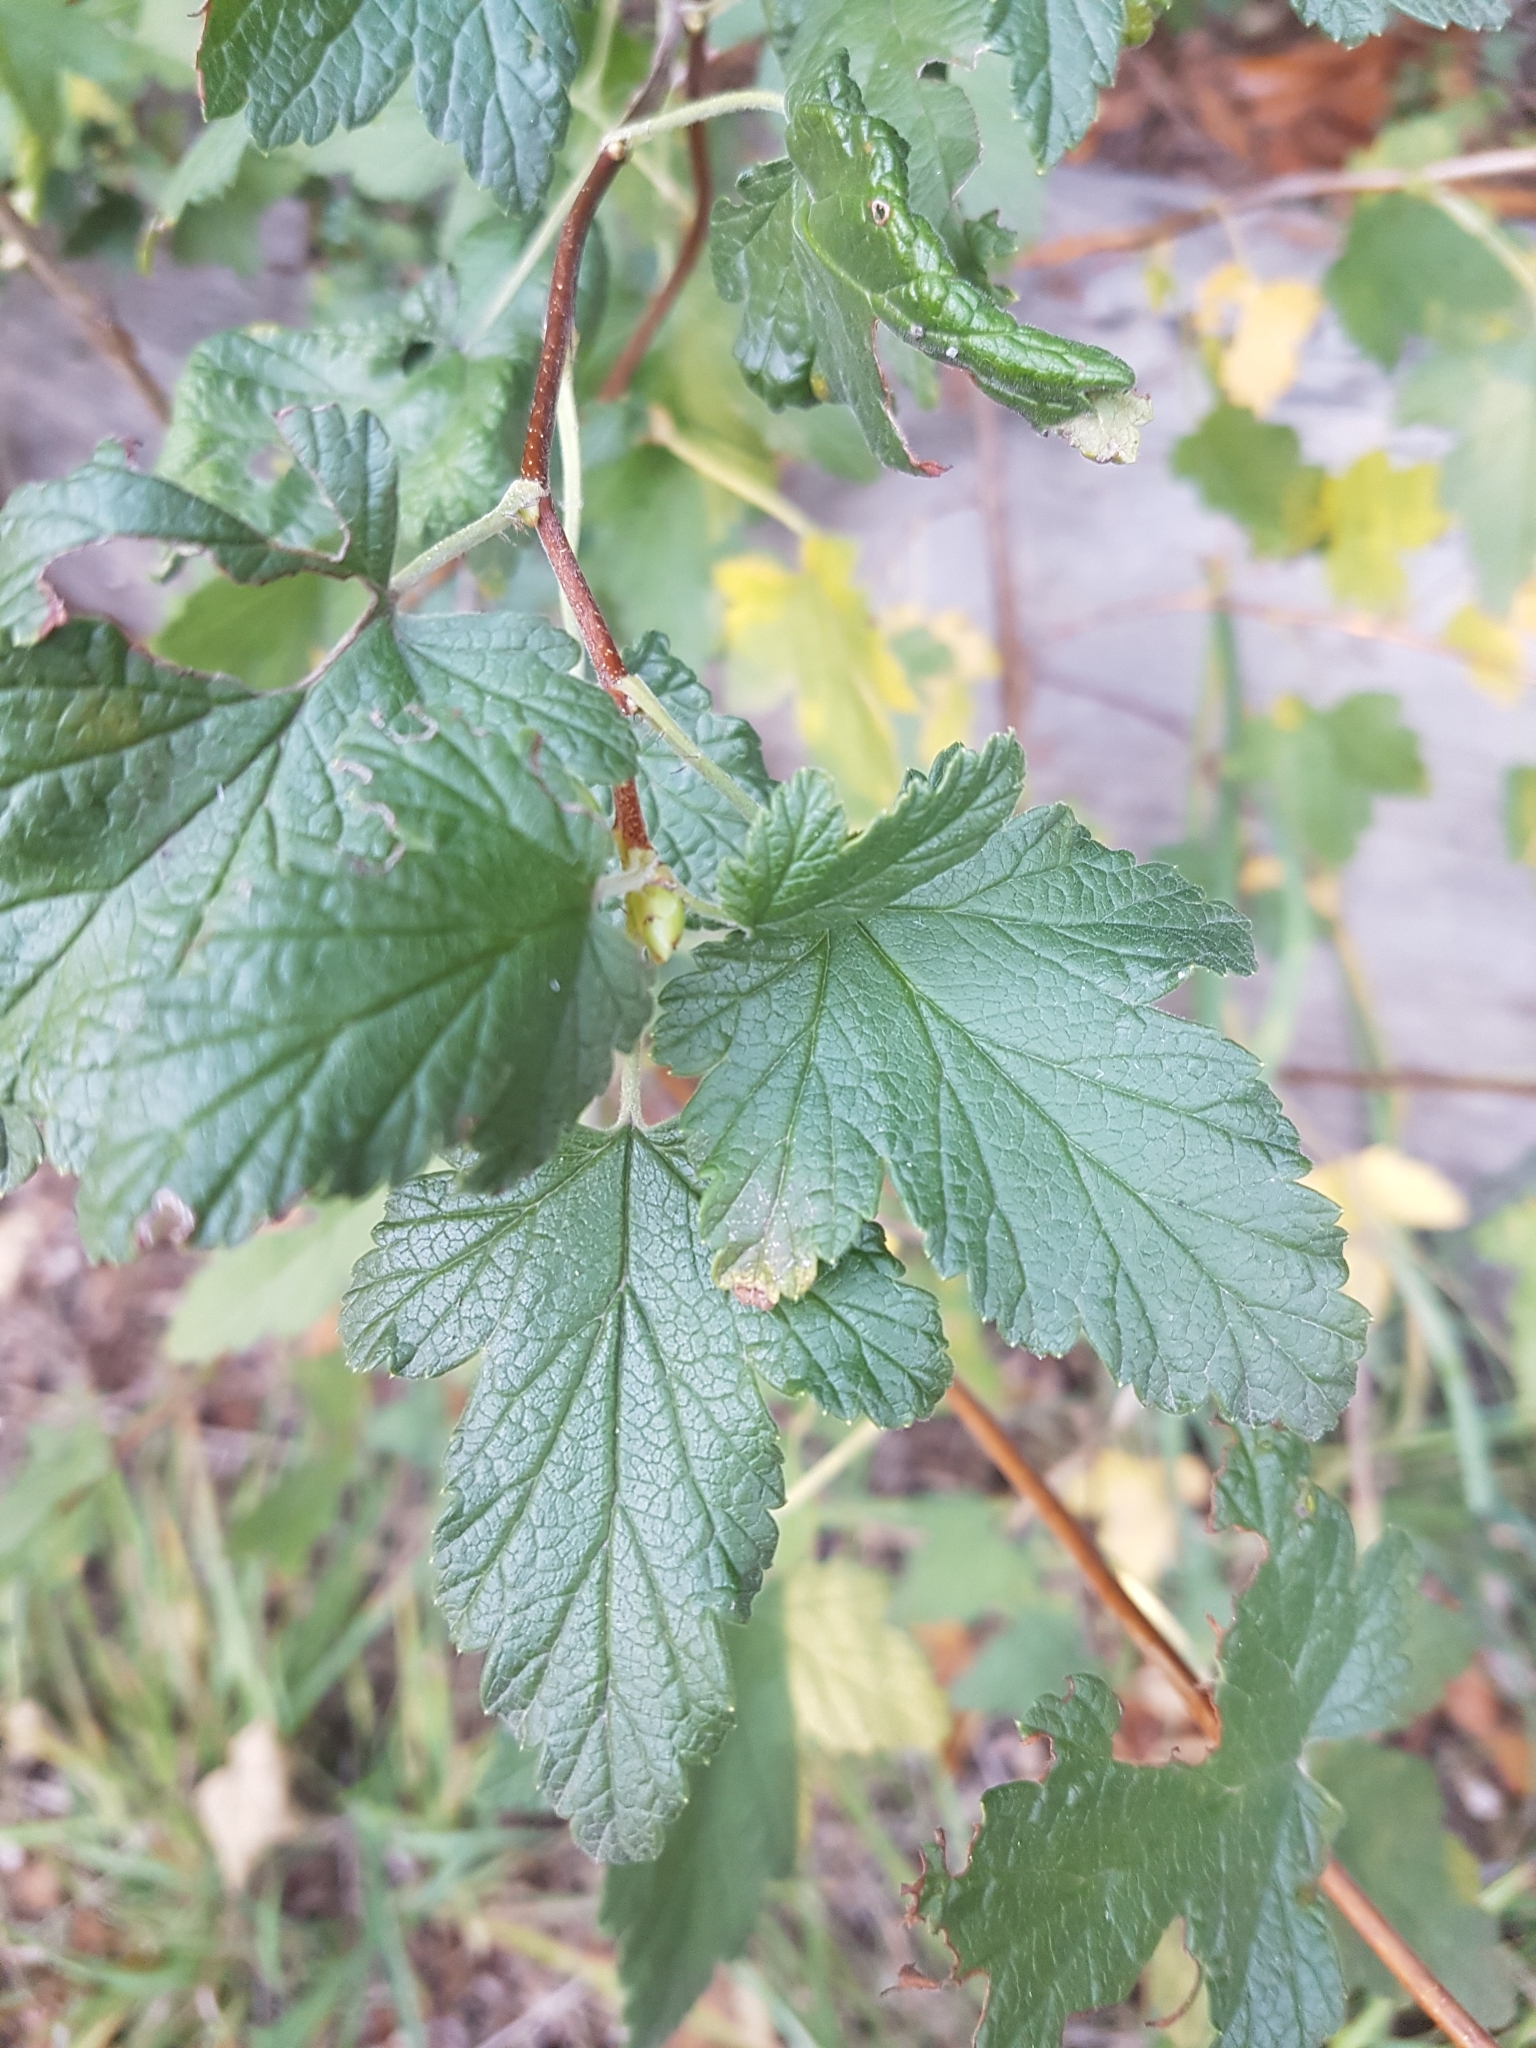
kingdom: Plantae
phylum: Tracheophyta
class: Magnoliopsida
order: Saxifragales
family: Grossulariaceae
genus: Ribes
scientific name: Ribes magellanicum
